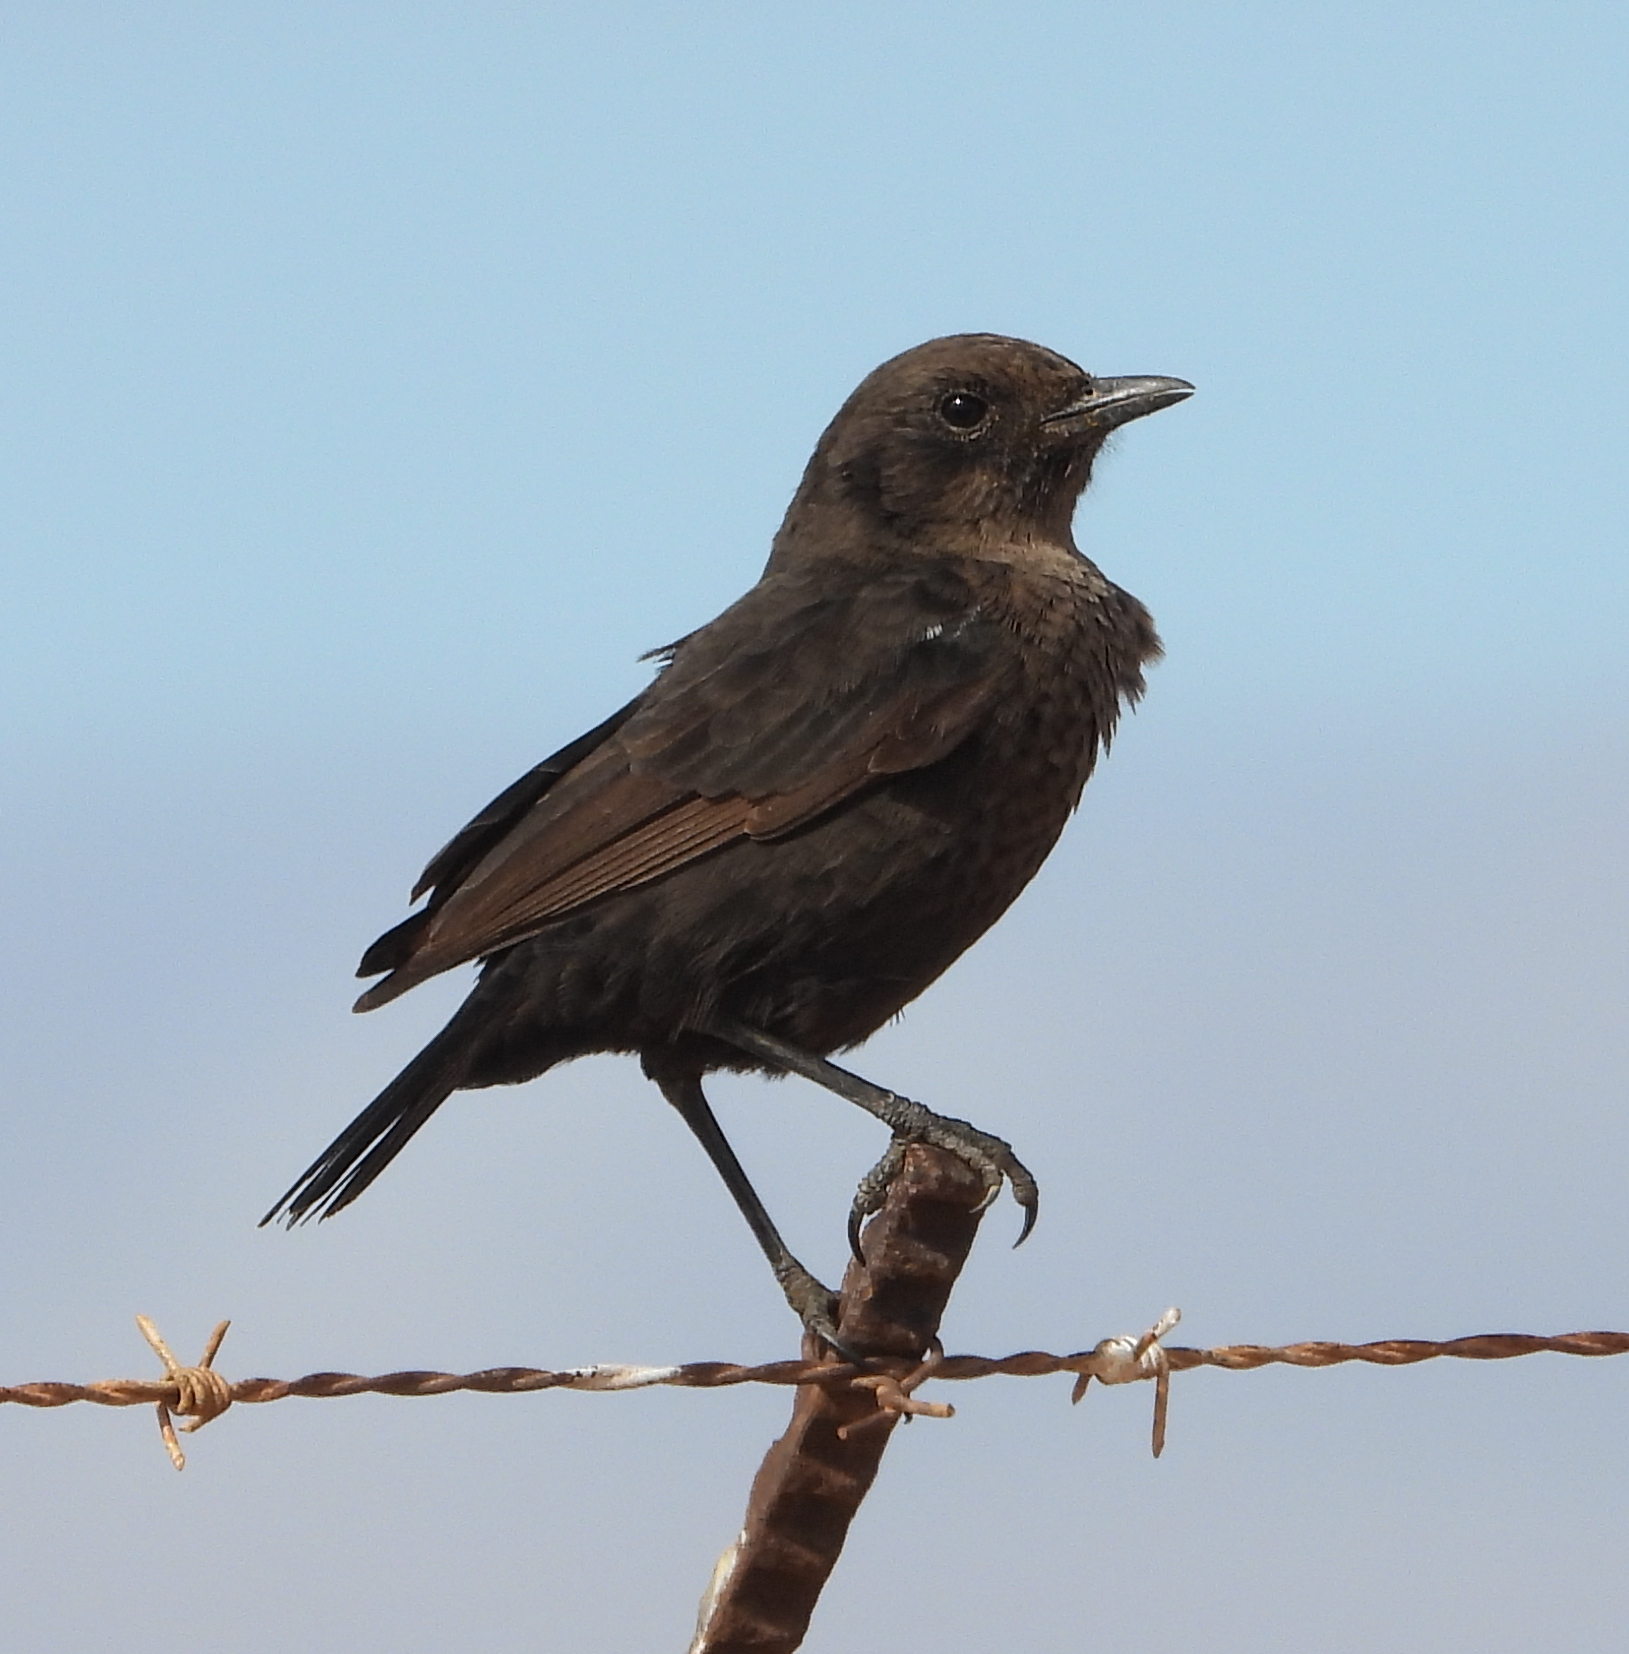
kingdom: Animalia
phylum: Chordata
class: Aves
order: Passeriformes
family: Muscicapidae
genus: Myrmecocichla
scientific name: Myrmecocichla formicivora
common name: Ant-eating chat
